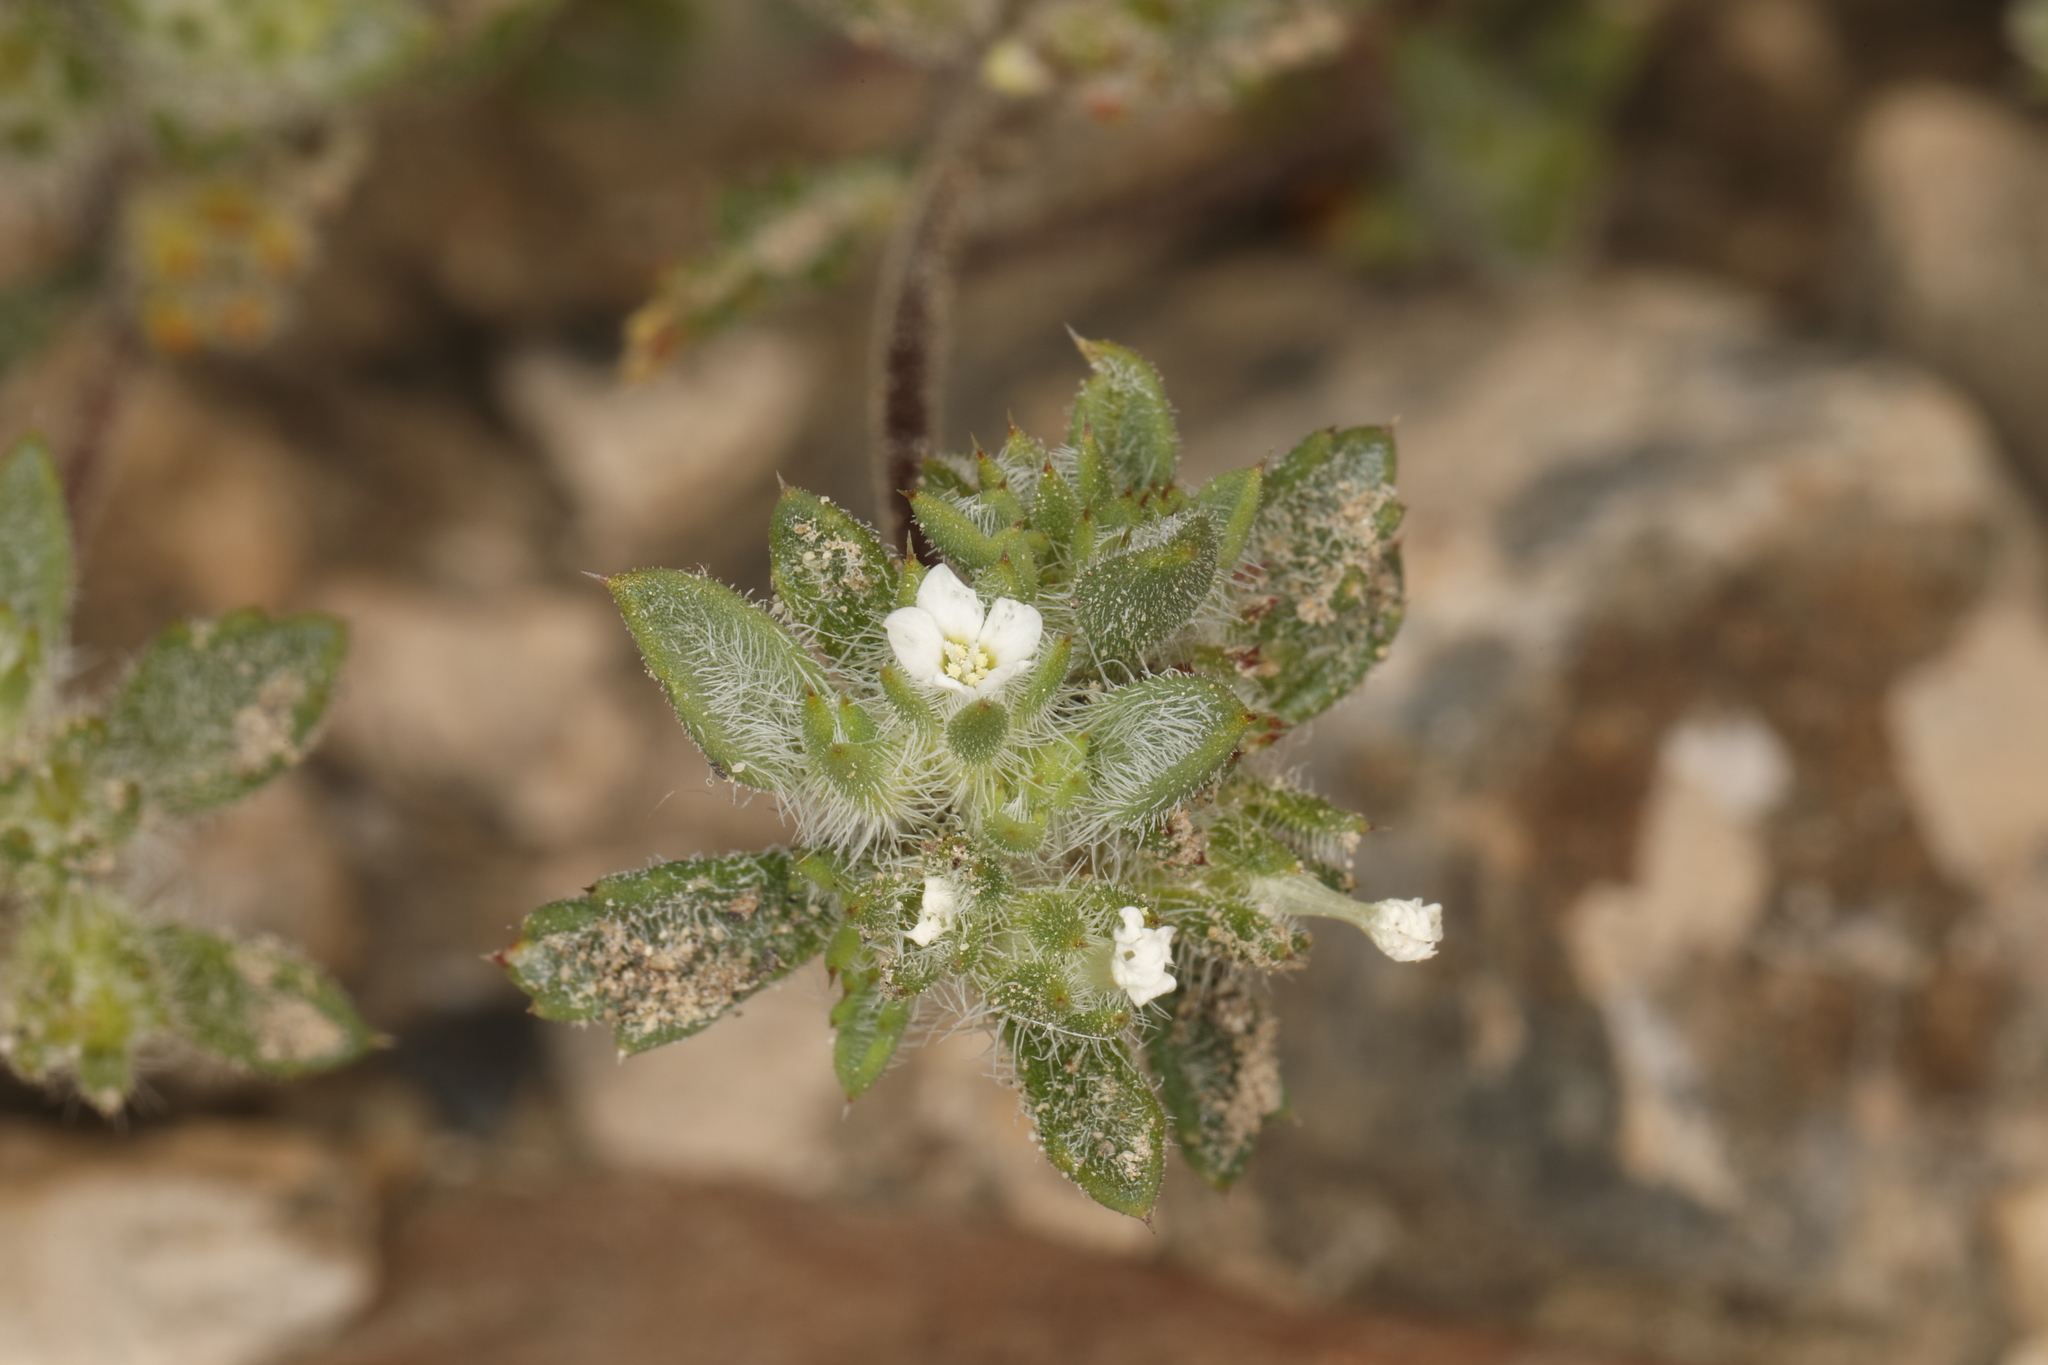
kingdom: Plantae
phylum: Tracheophyta
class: Magnoliopsida
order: Ericales
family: Polemoniaceae
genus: Ipomopsis
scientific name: Ipomopsis polycladon
